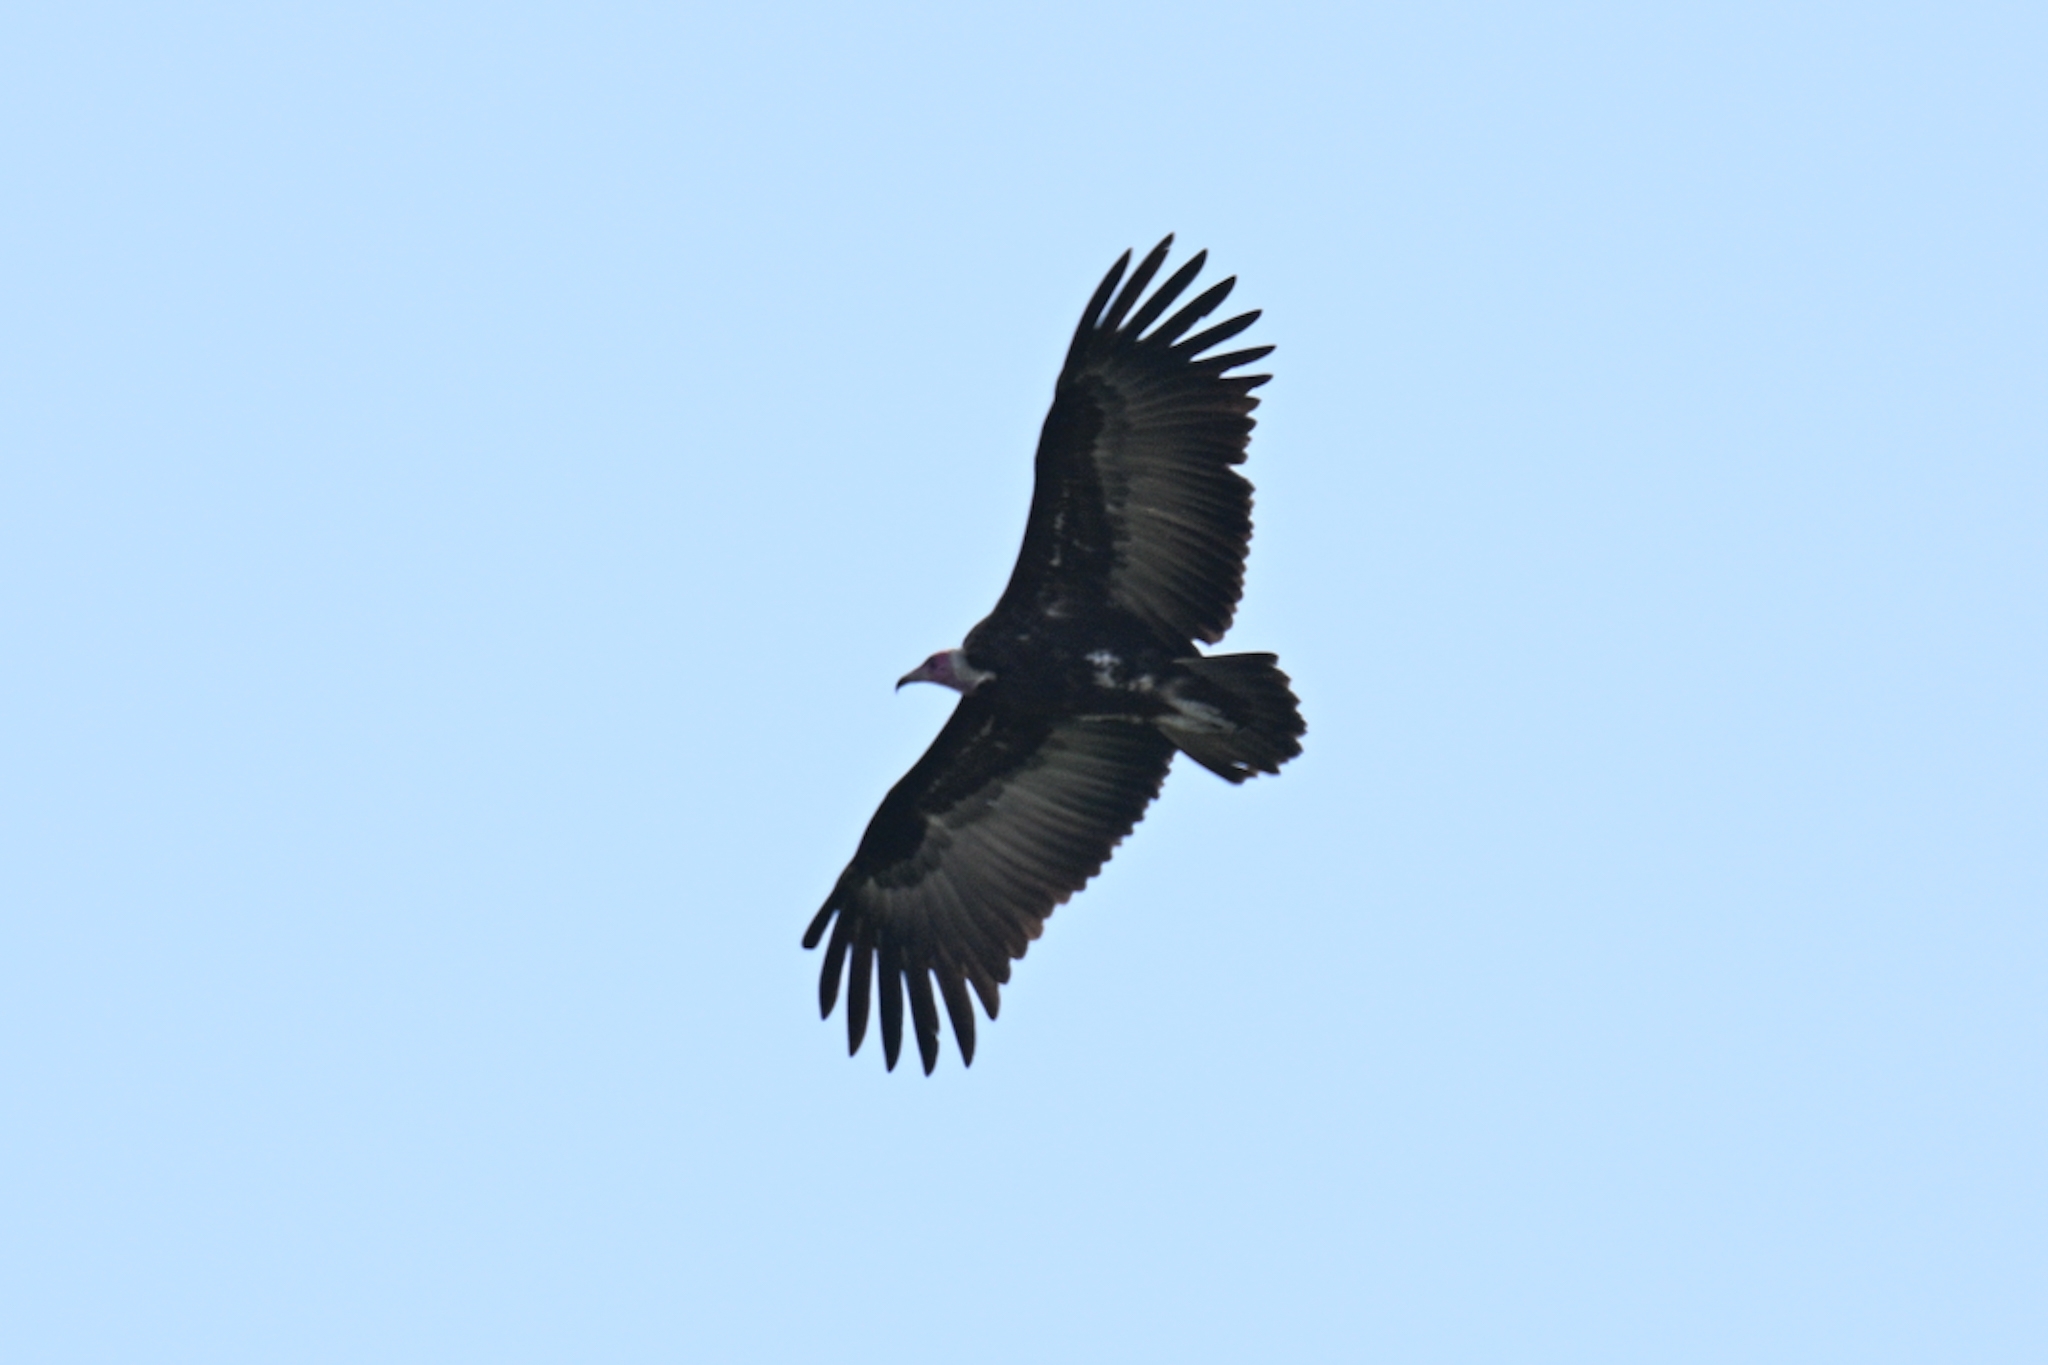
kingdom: Animalia
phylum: Chordata
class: Aves
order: Accipitriformes
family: Accipitridae
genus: Necrosyrtes
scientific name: Necrosyrtes monachus
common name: Hooded vulture
